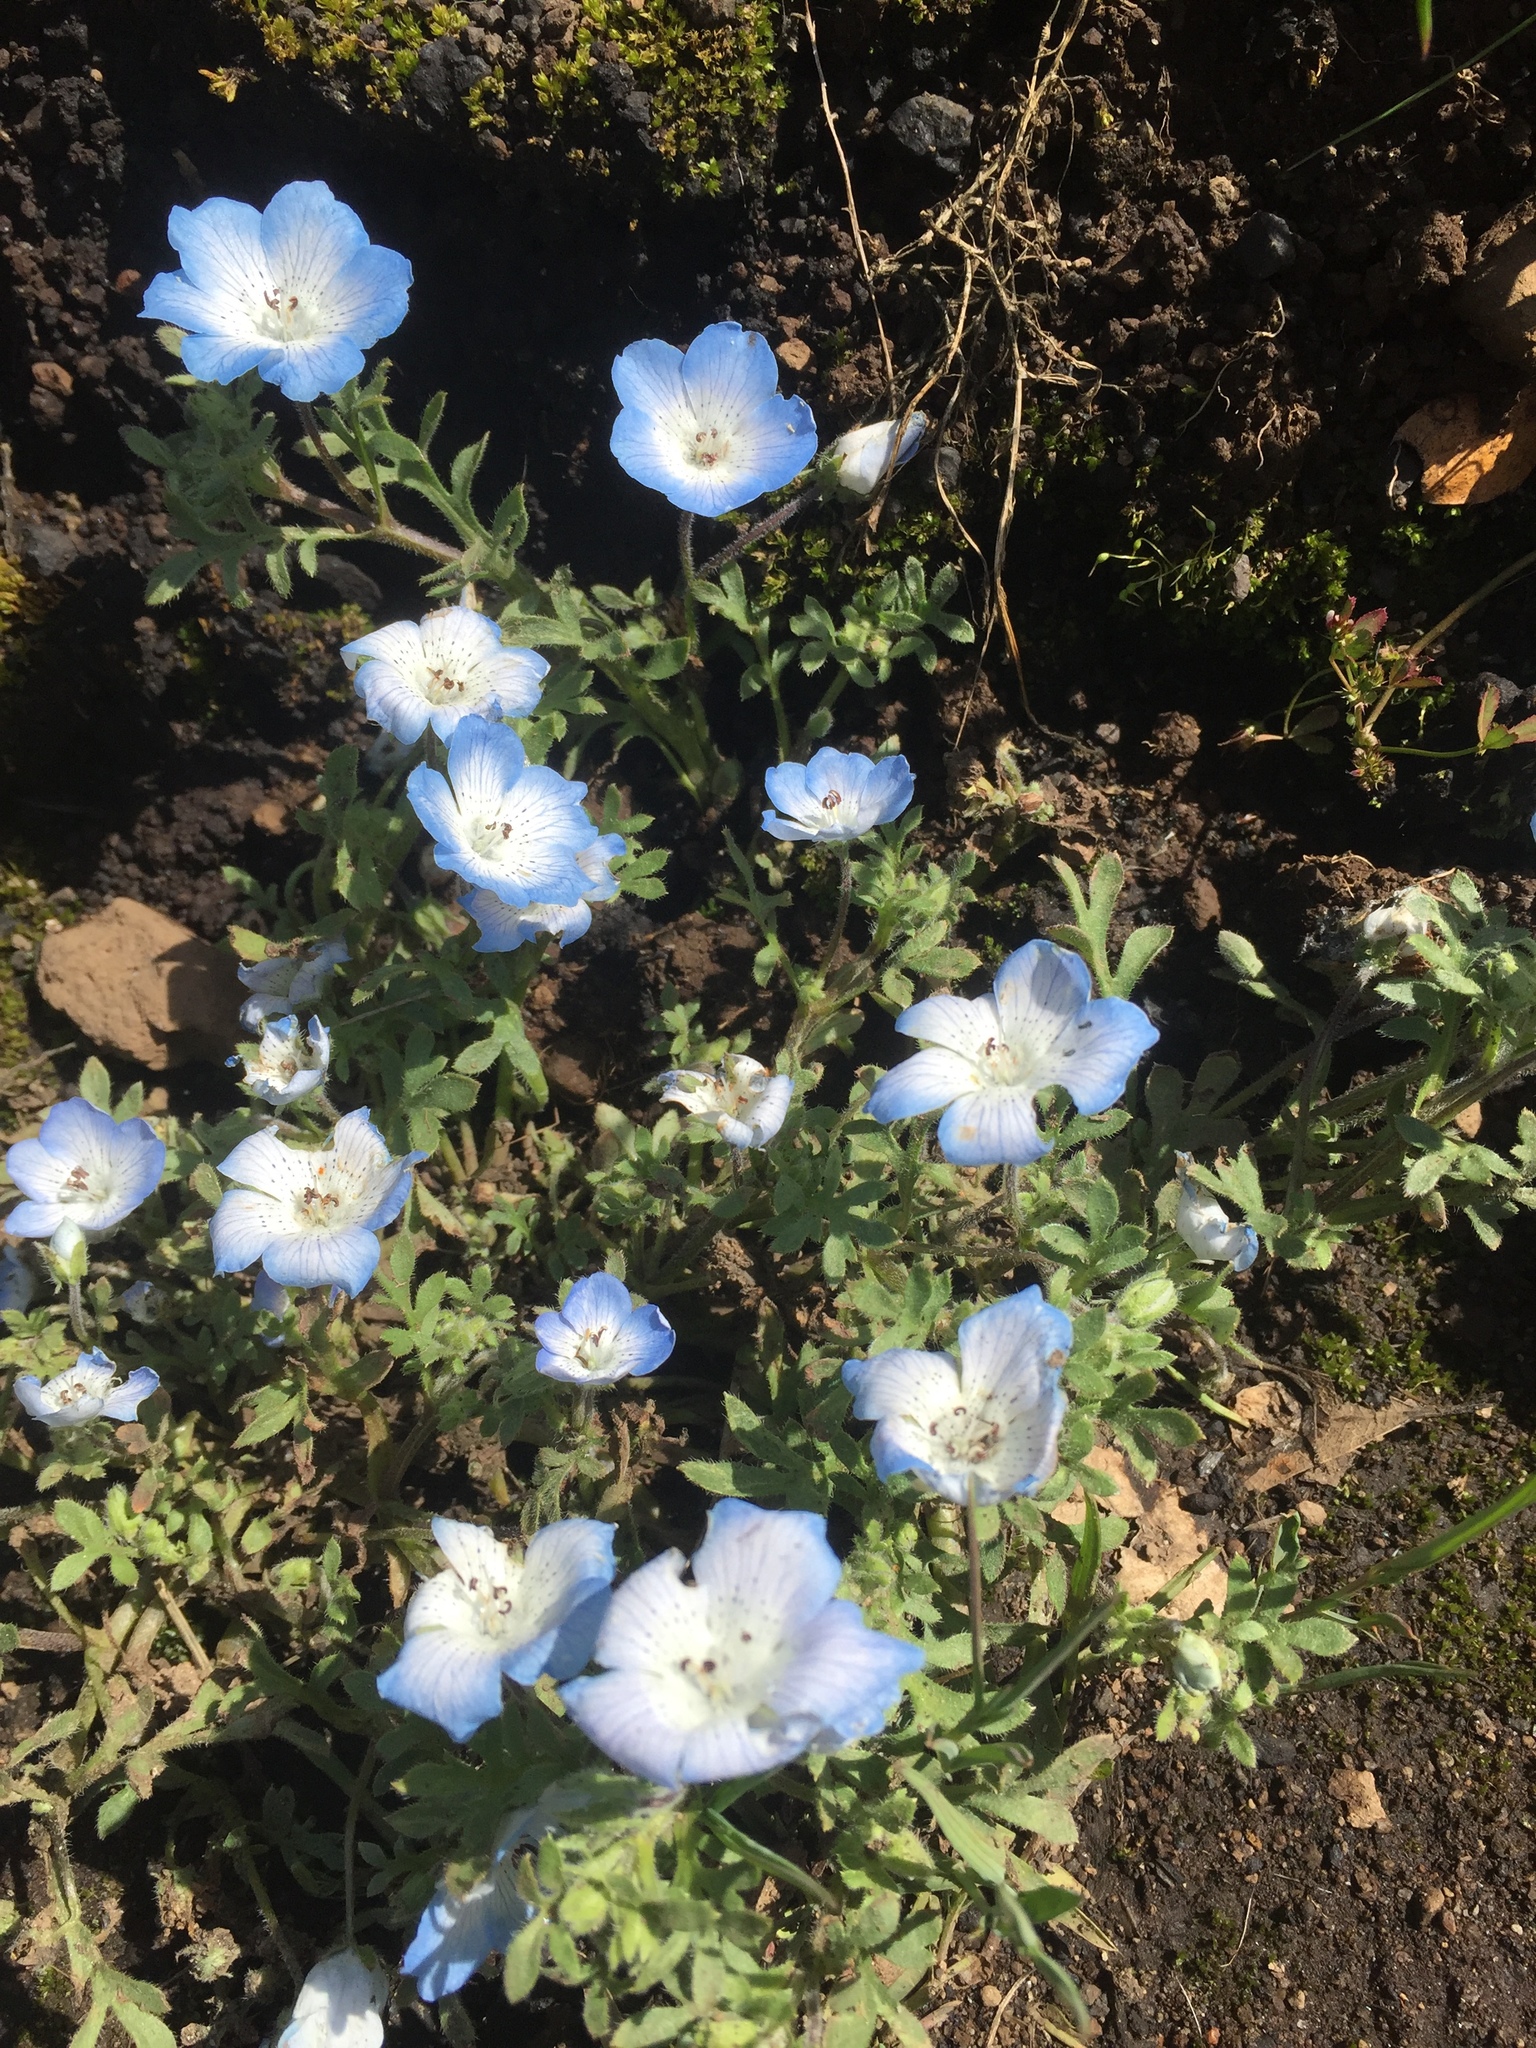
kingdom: Plantae
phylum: Tracheophyta
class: Magnoliopsida
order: Boraginales
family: Hydrophyllaceae
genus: Nemophila
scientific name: Nemophila menziesii
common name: Baby's-blue-eyes
